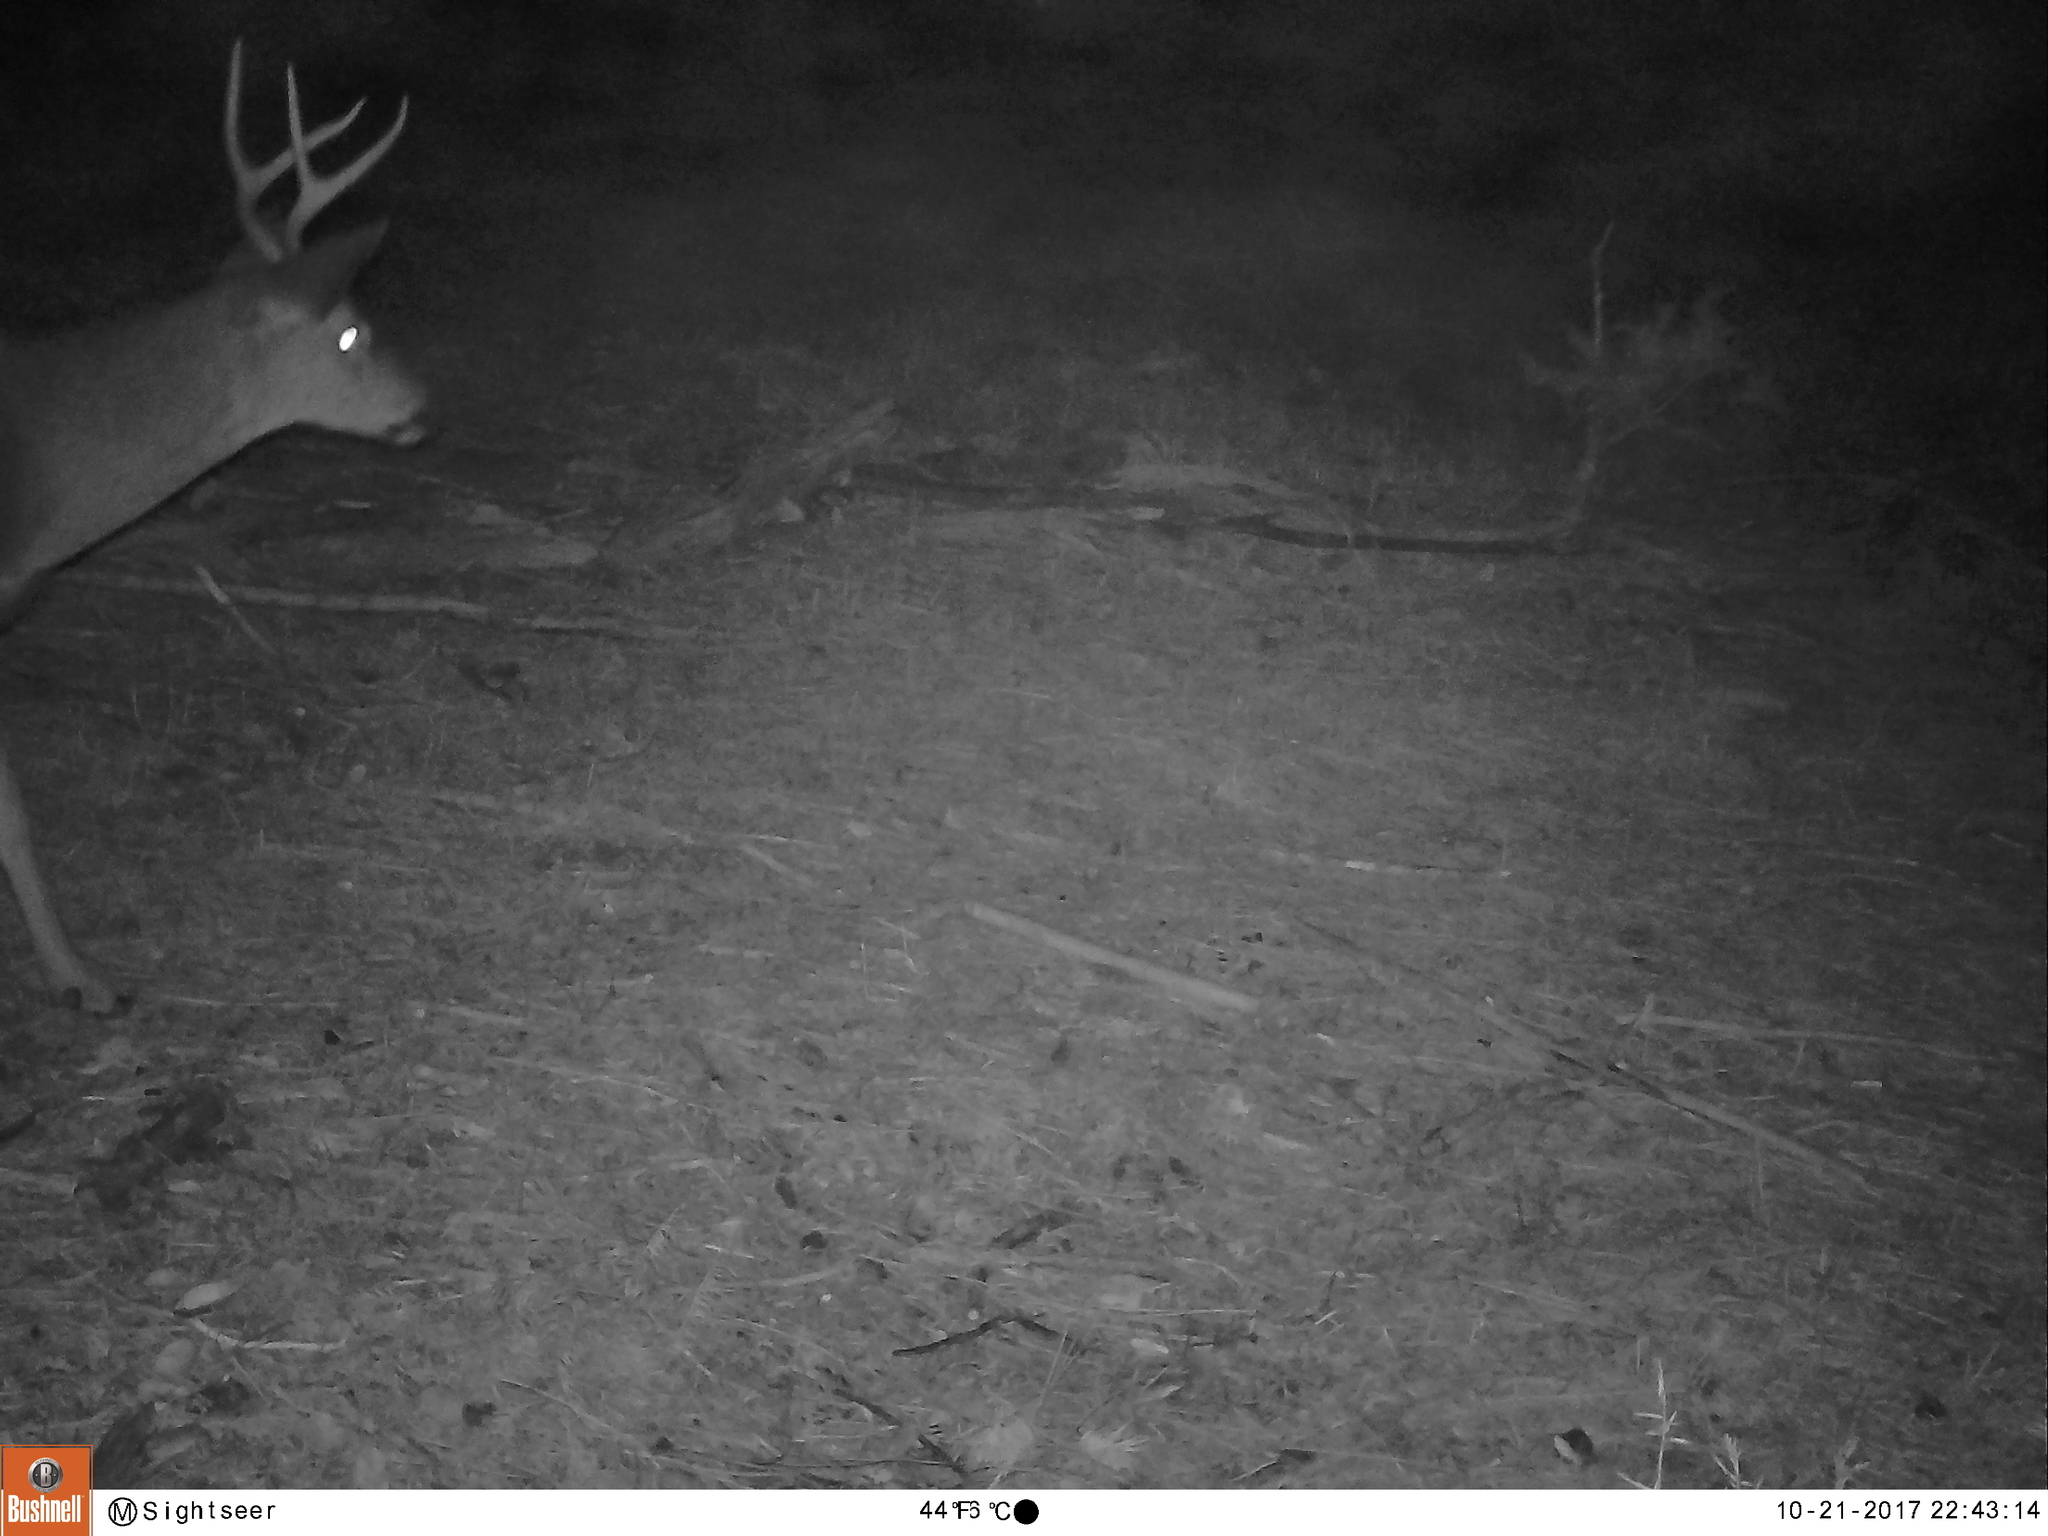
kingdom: Animalia
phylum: Chordata
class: Mammalia
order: Artiodactyla
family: Cervidae
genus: Odocoileus
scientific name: Odocoileus hemionus
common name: Mule deer
